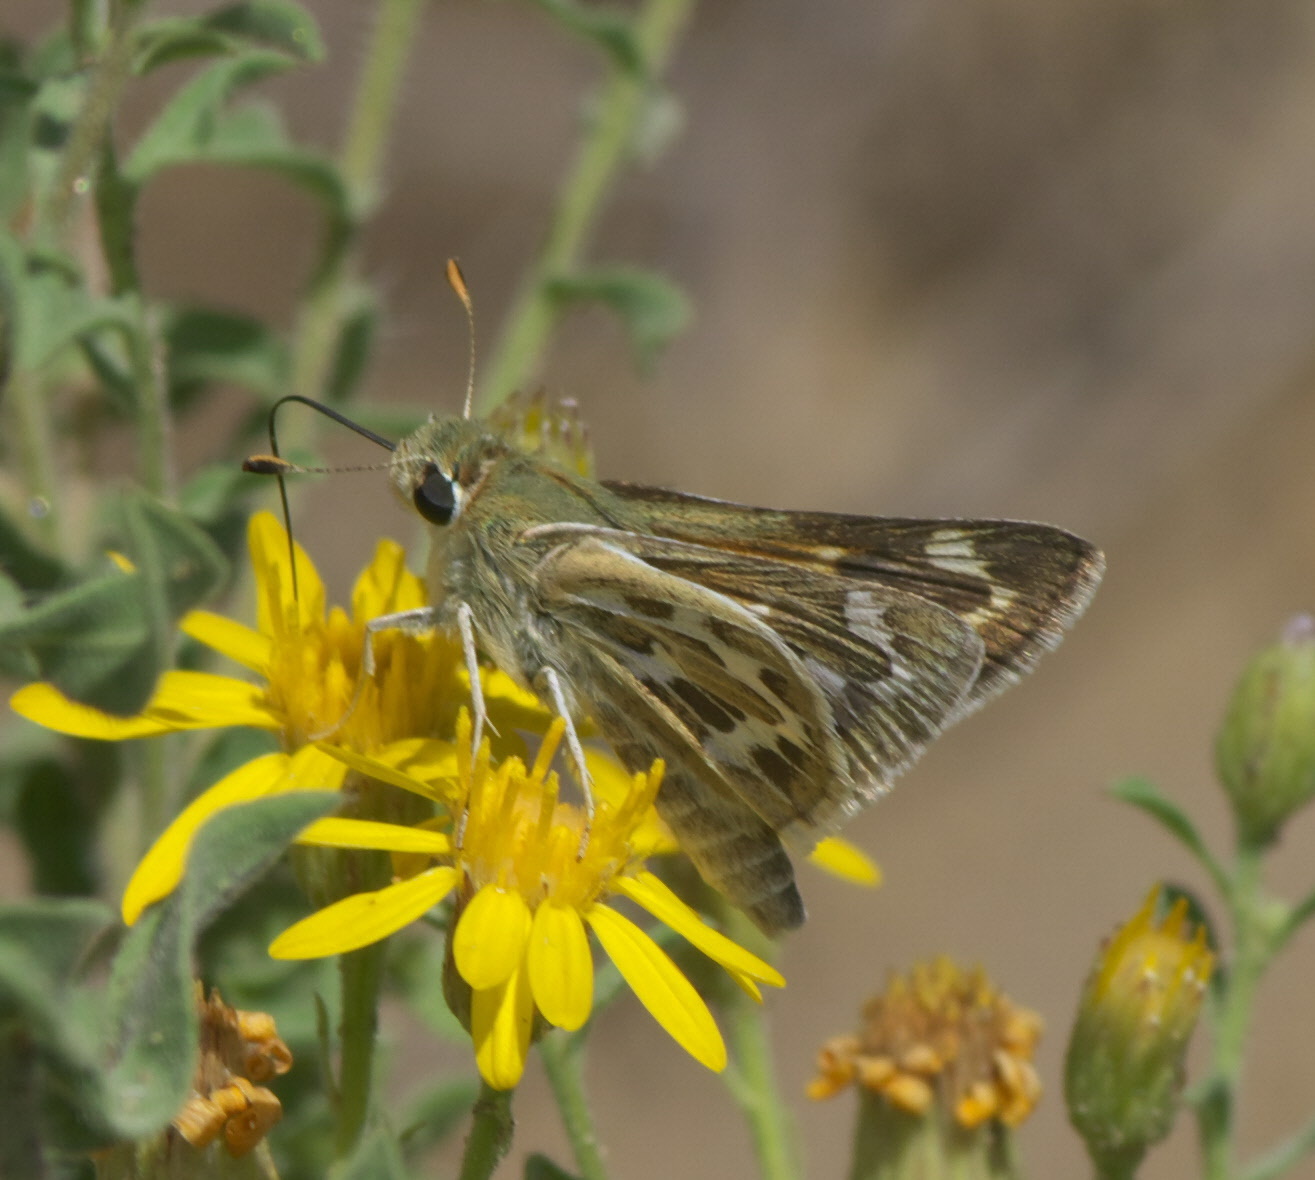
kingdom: Animalia
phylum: Arthropoda
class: Insecta
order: Lepidoptera
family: Hesperiidae
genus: Hesperia
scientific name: Hesperia uncas
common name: Uncas skipper
